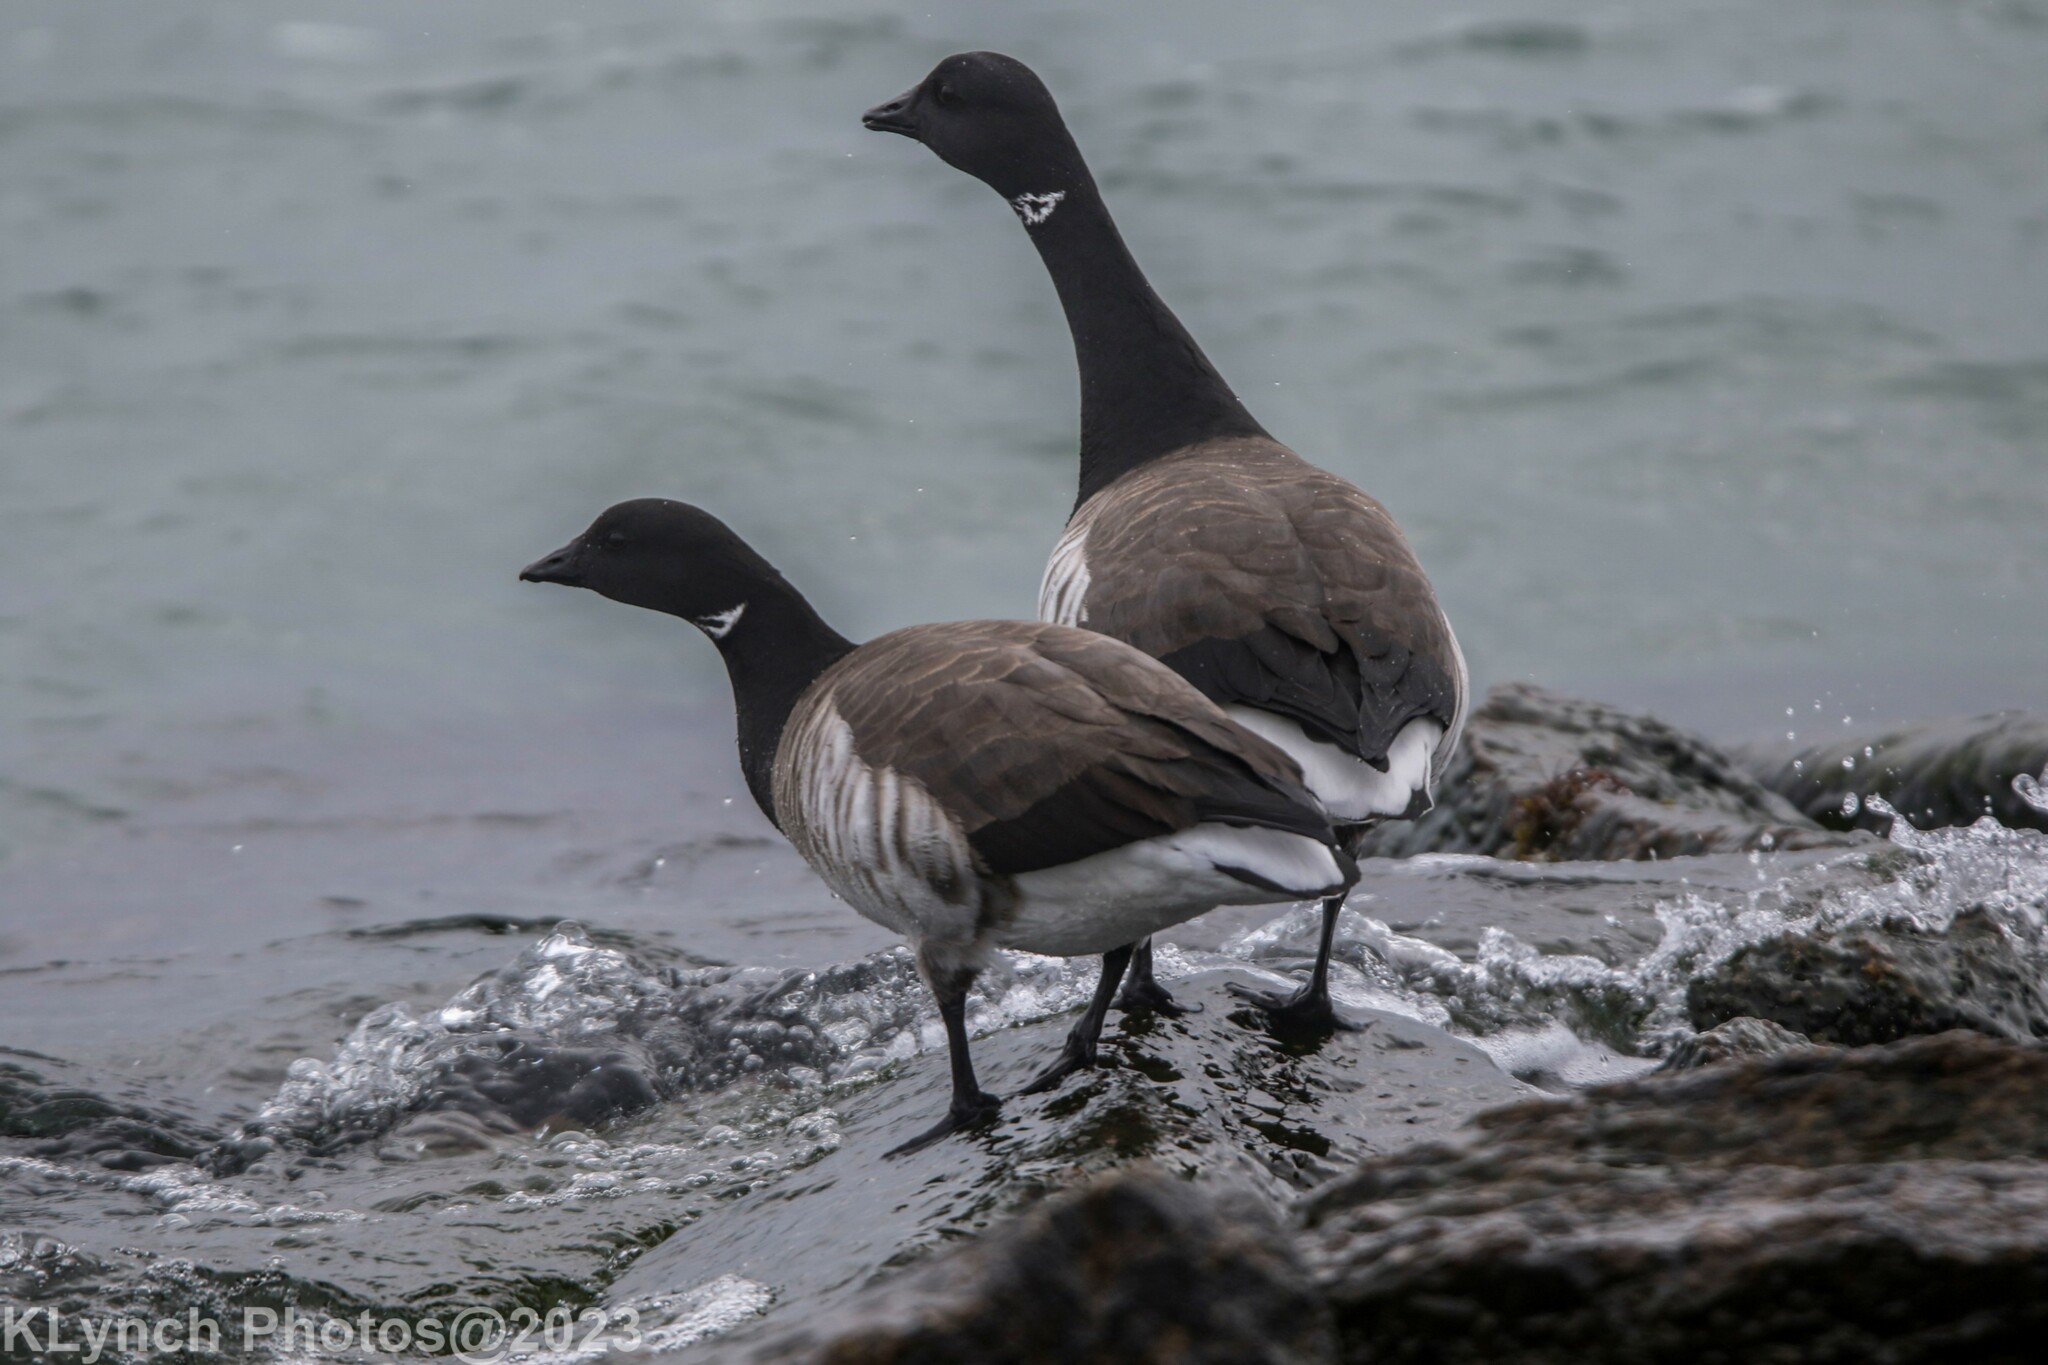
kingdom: Animalia
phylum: Chordata
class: Aves
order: Anseriformes
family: Anatidae
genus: Branta
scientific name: Branta bernicla
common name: Brant goose
